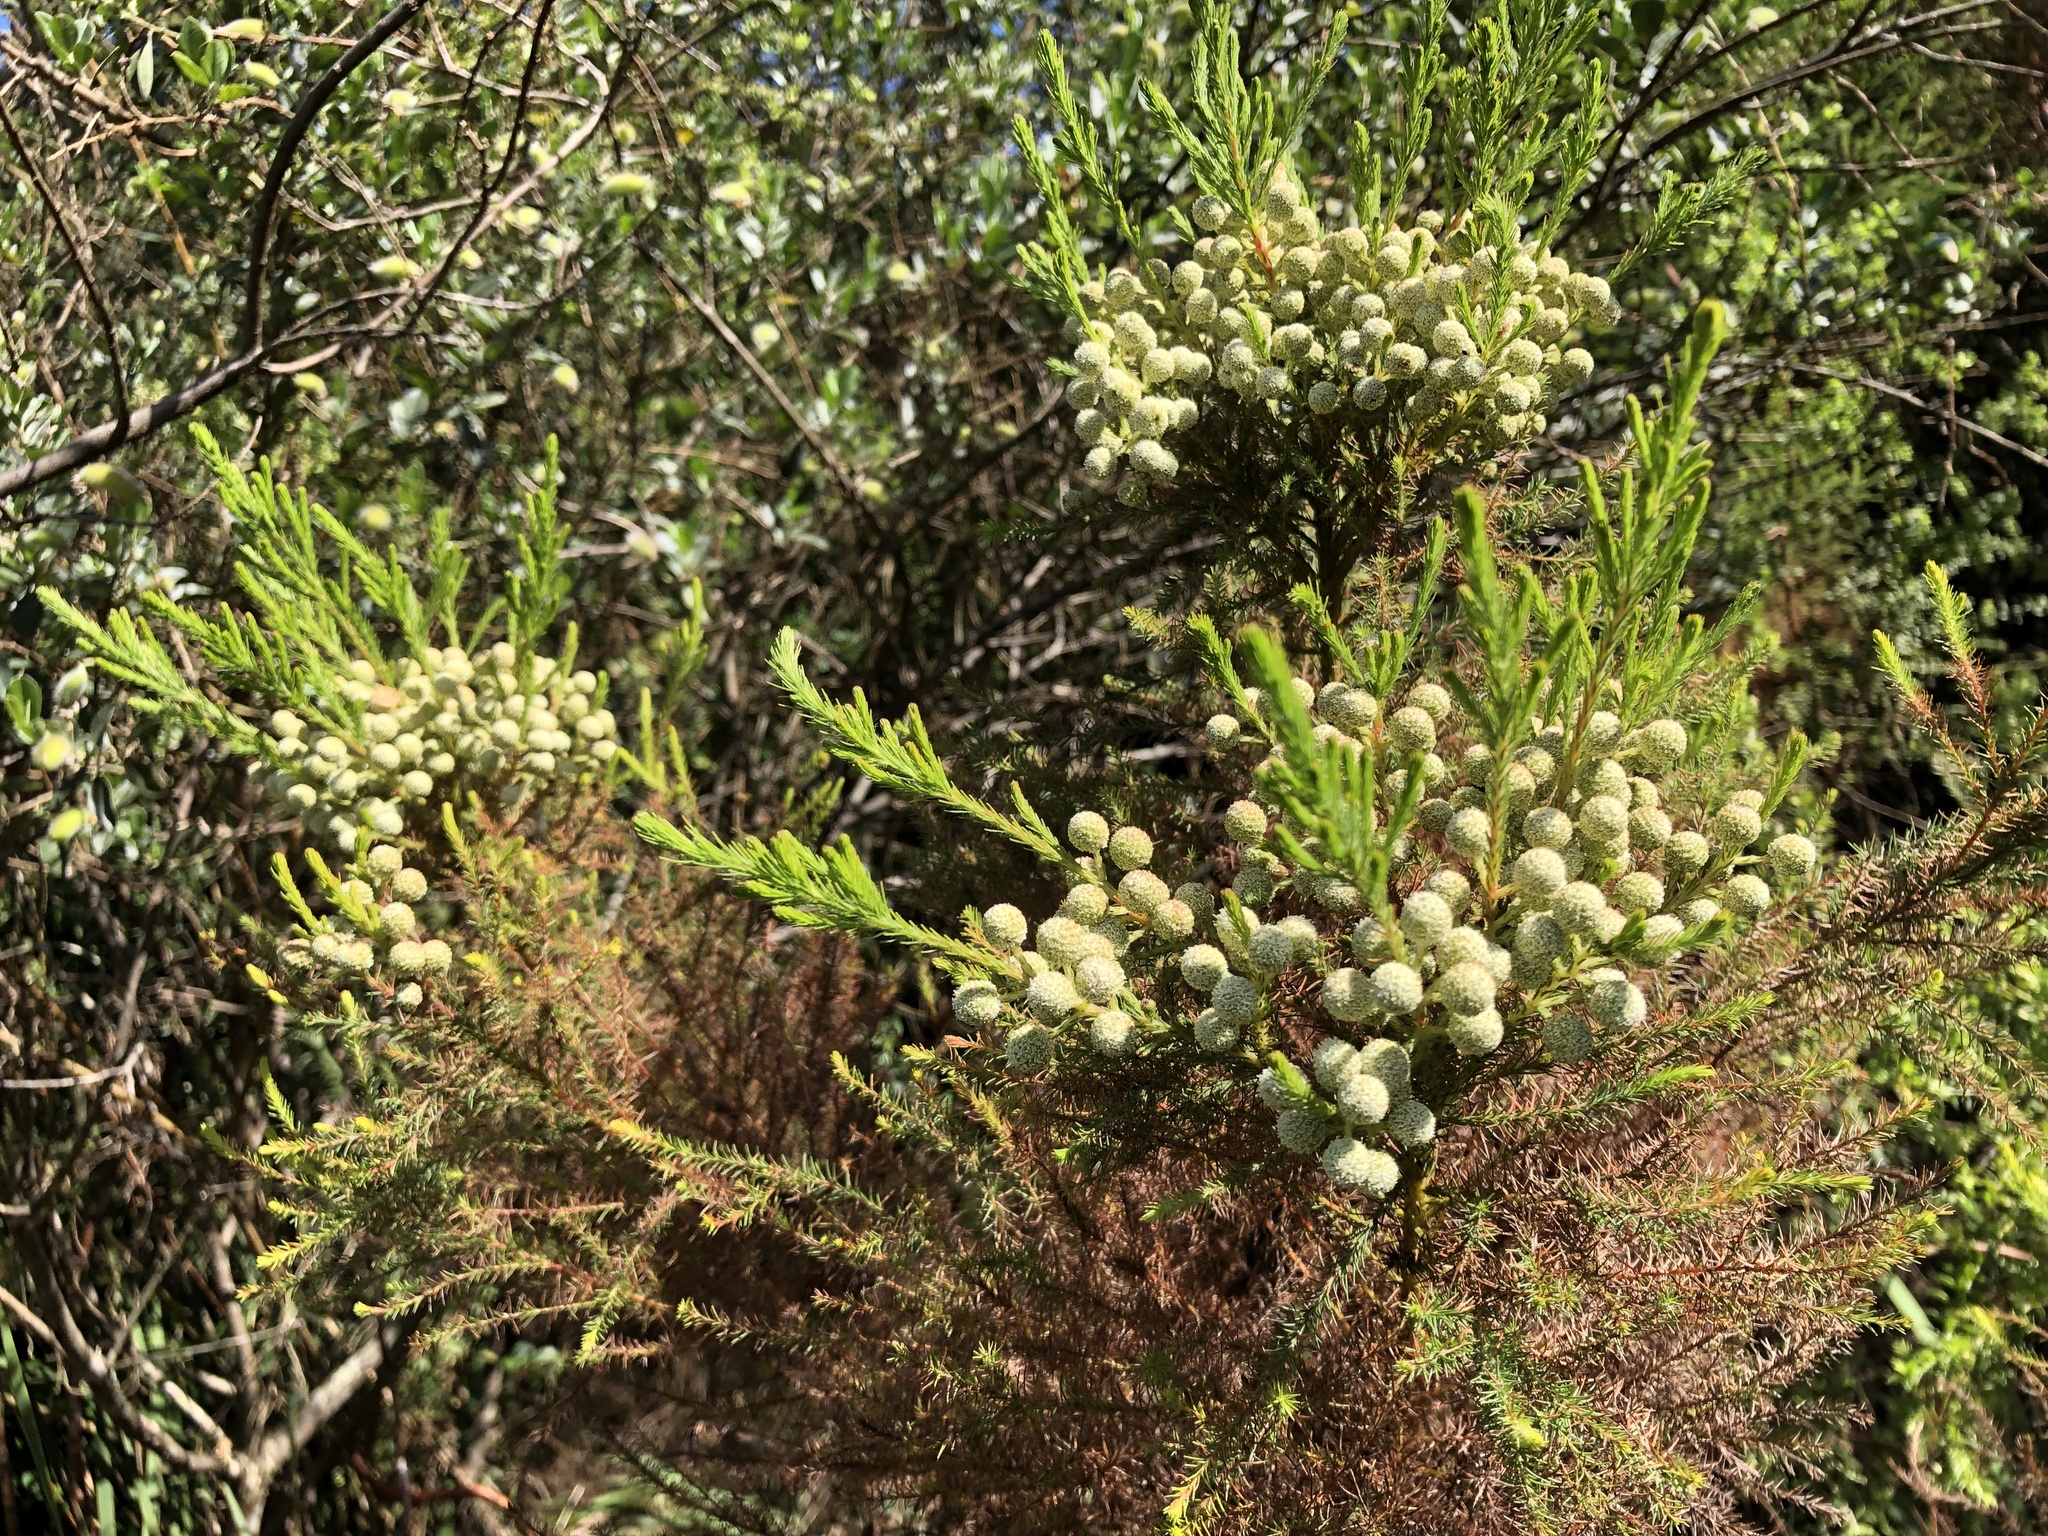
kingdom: Plantae
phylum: Tracheophyta
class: Magnoliopsida
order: Bruniales
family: Bruniaceae
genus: Berzelia
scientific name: Berzelia lanuginosa
